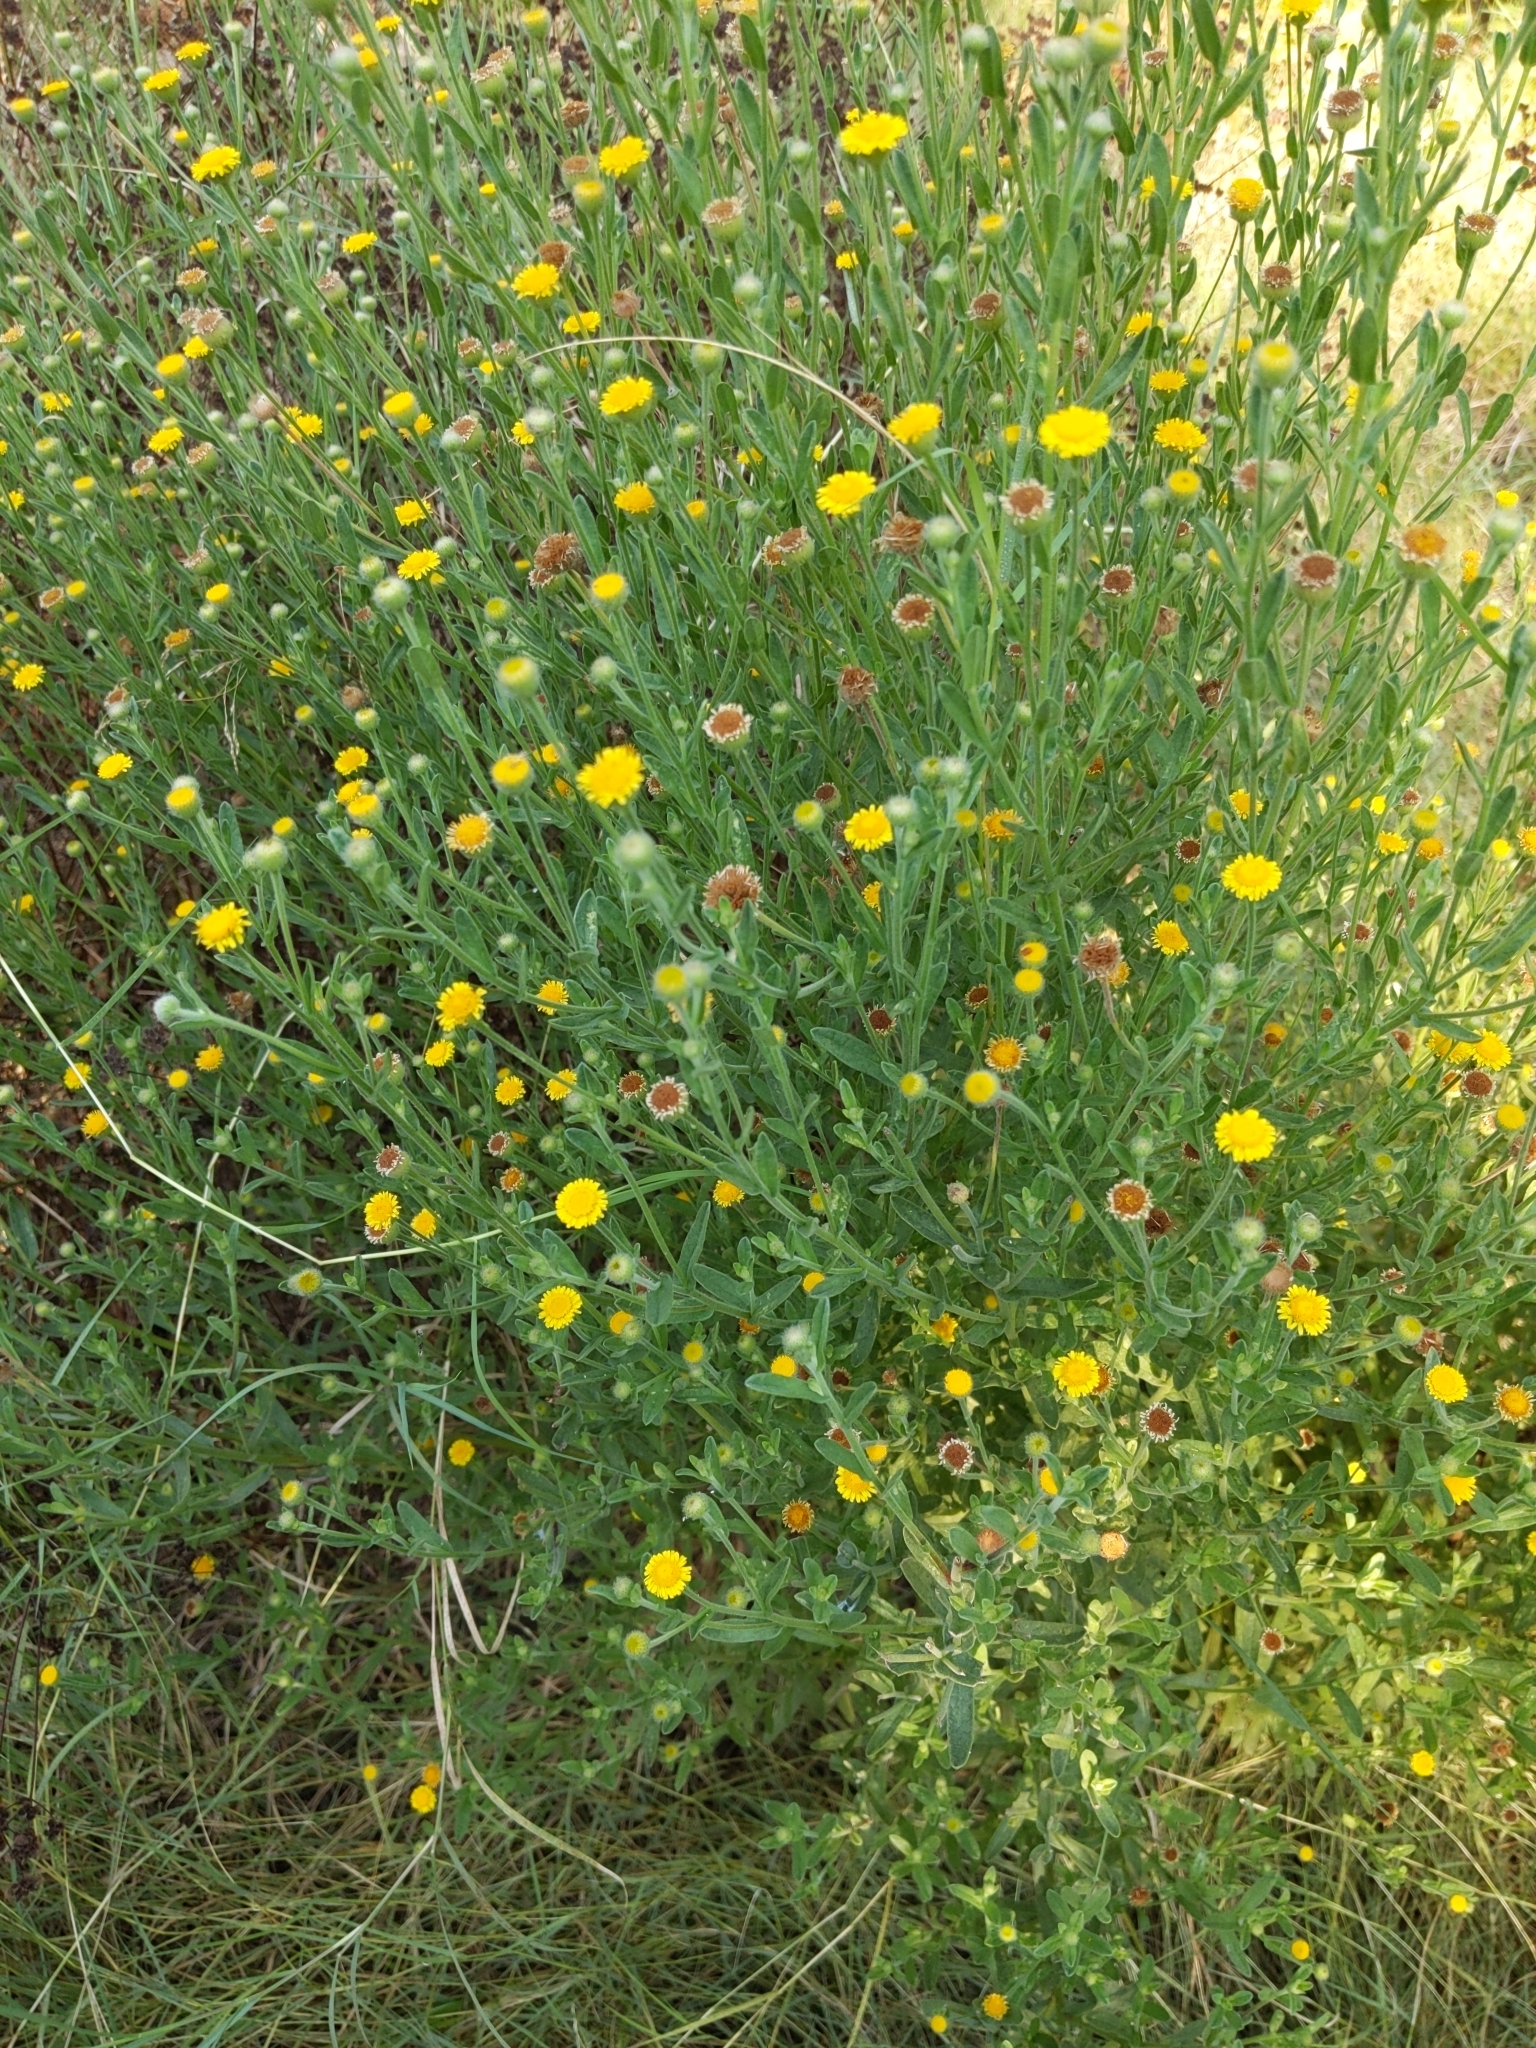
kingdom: Plantae
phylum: Tracheophyta
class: Magnoliopsida
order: Asterales
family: Asteraceae
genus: Pulicaria
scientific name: Pulicaria paludosa
